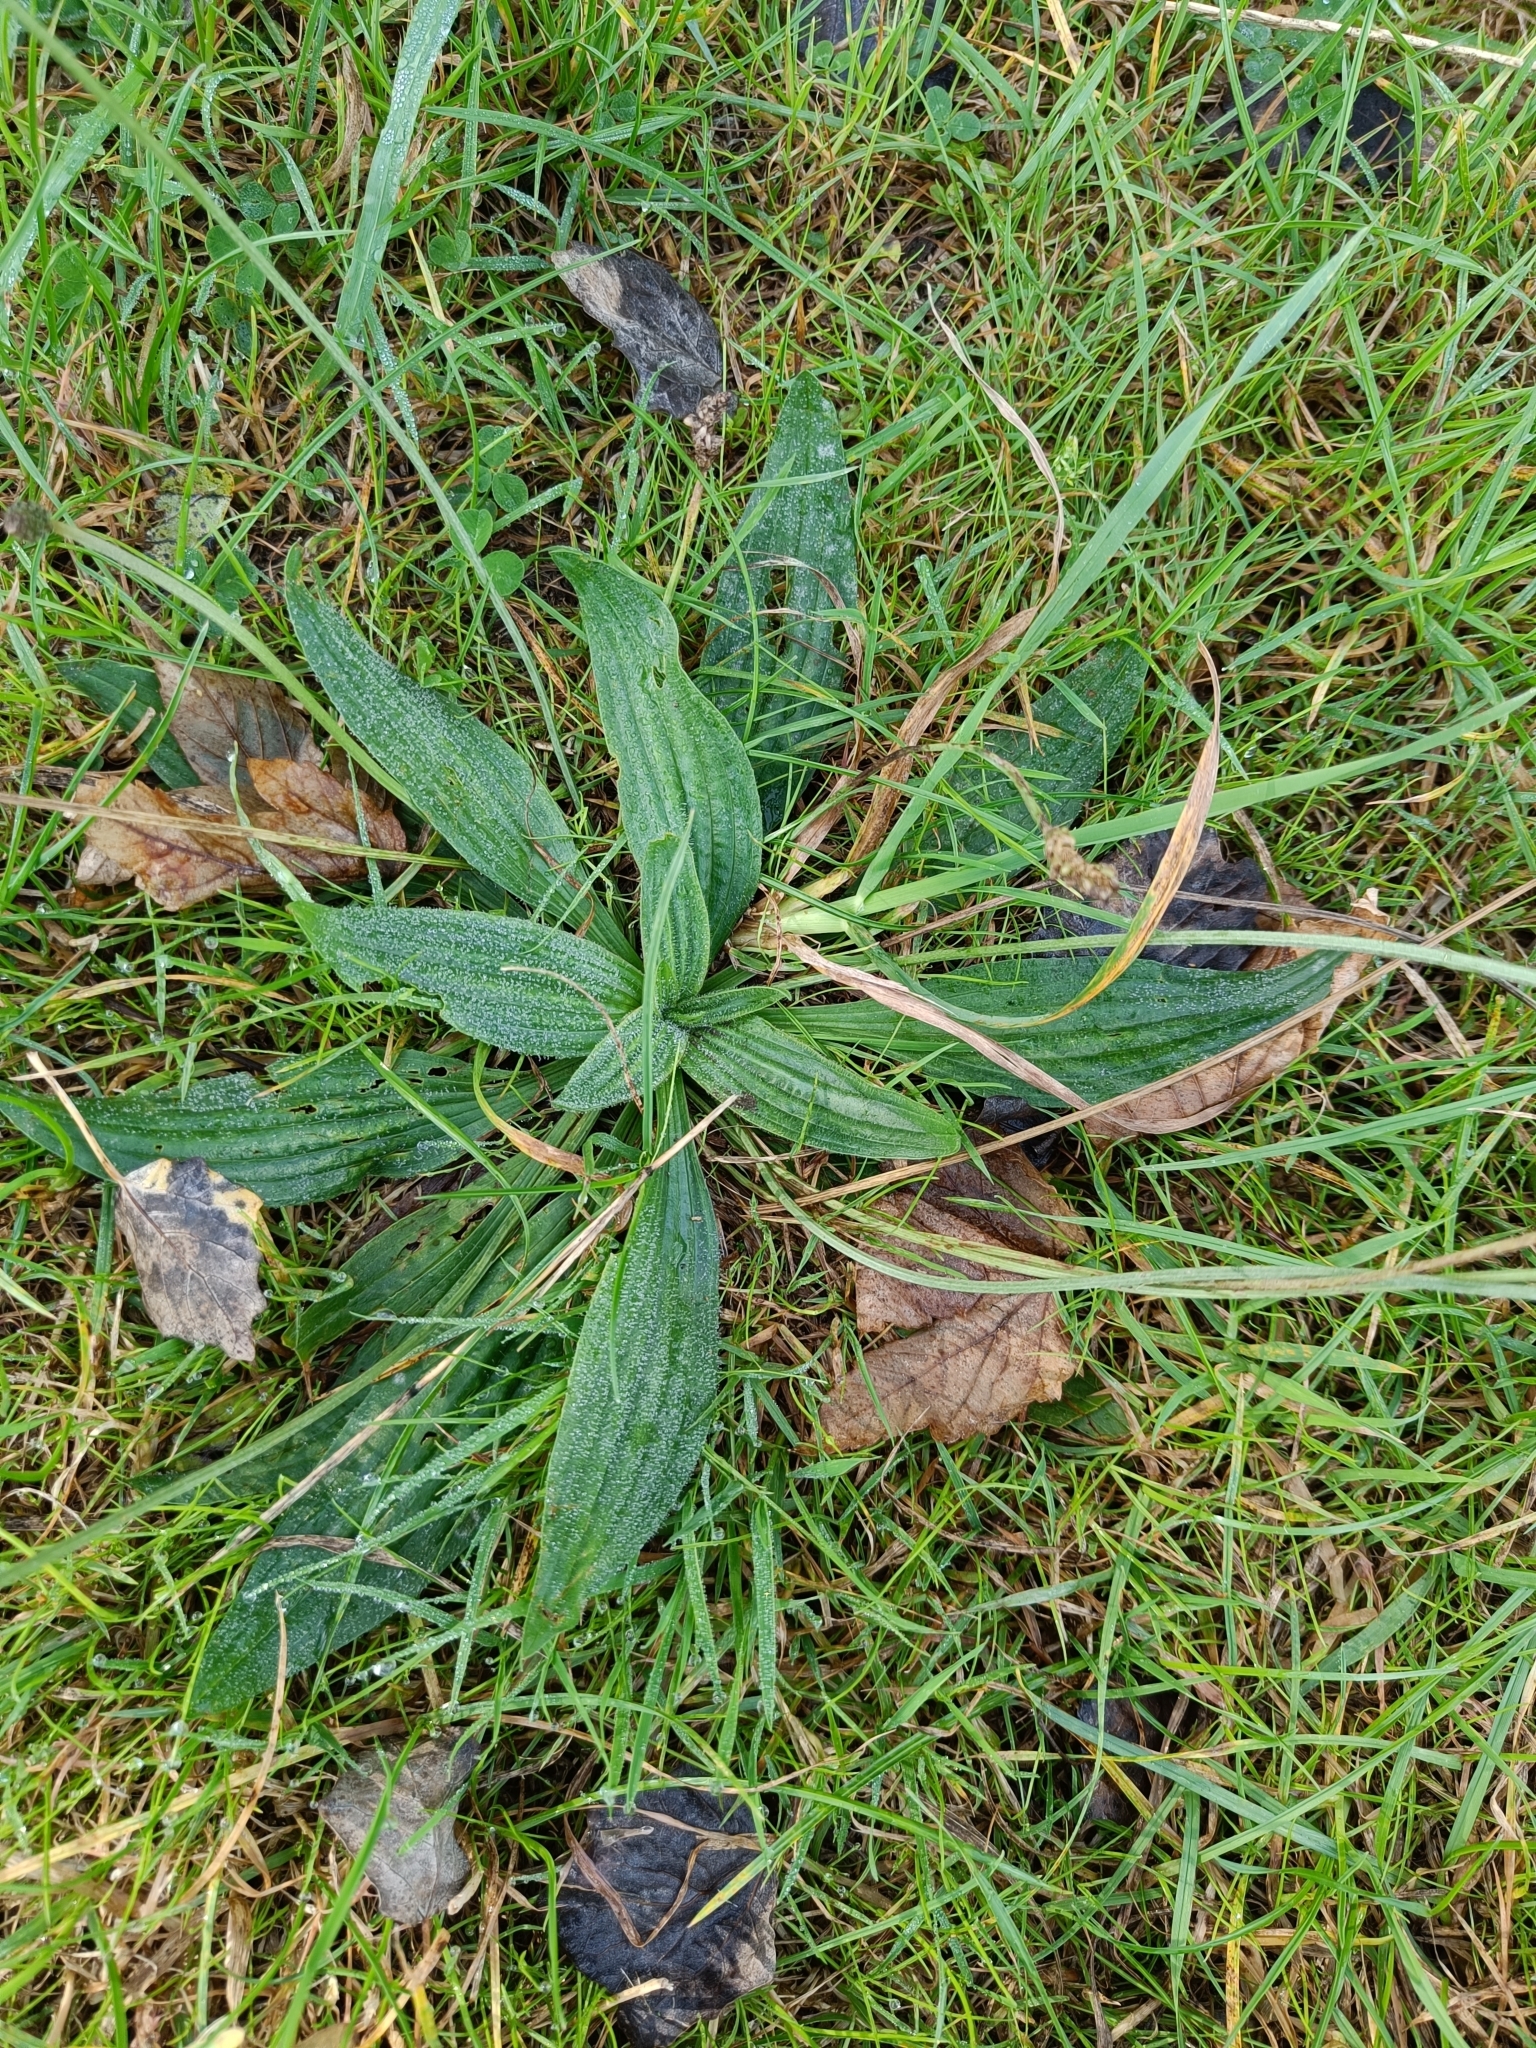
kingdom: Plantae
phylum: Tracheophyta
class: Magnoliopsida
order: Lamiales
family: Plantaginaceae
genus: Plantago
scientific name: Plantago lanceolata
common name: Ribwort plantain
